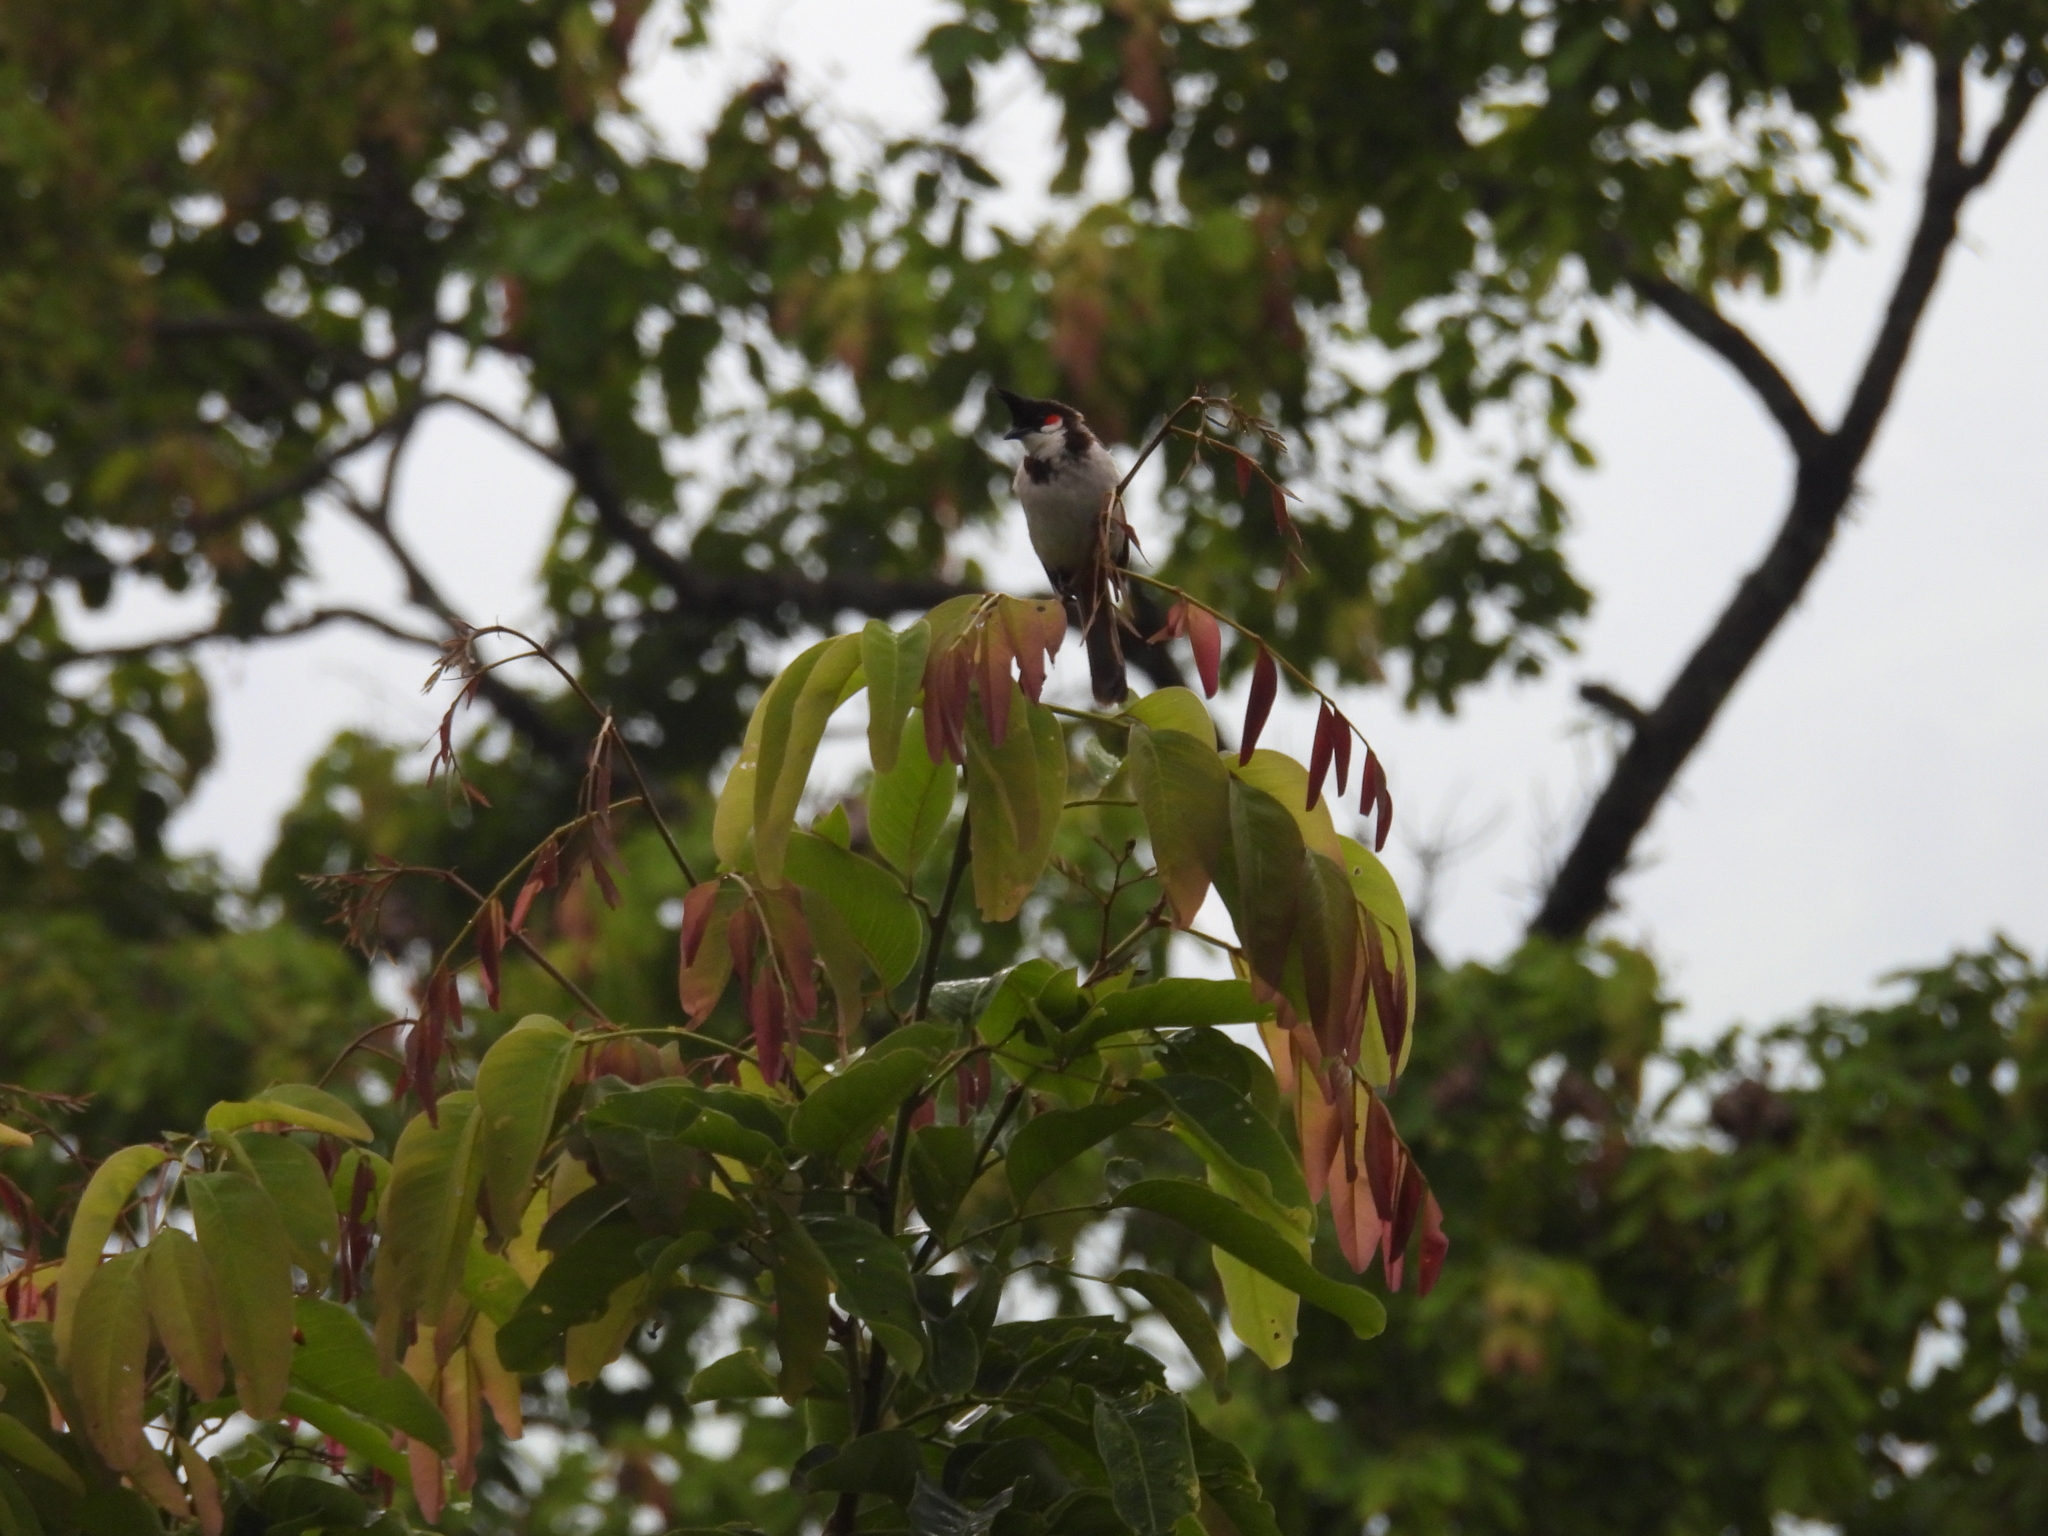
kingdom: Animalia
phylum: Chordata
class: Aves
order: Passeriformes
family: Pycnonotidae
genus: Pycnonotus
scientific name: Pycnonotus jocosus
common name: Red-whiskered bulbul
